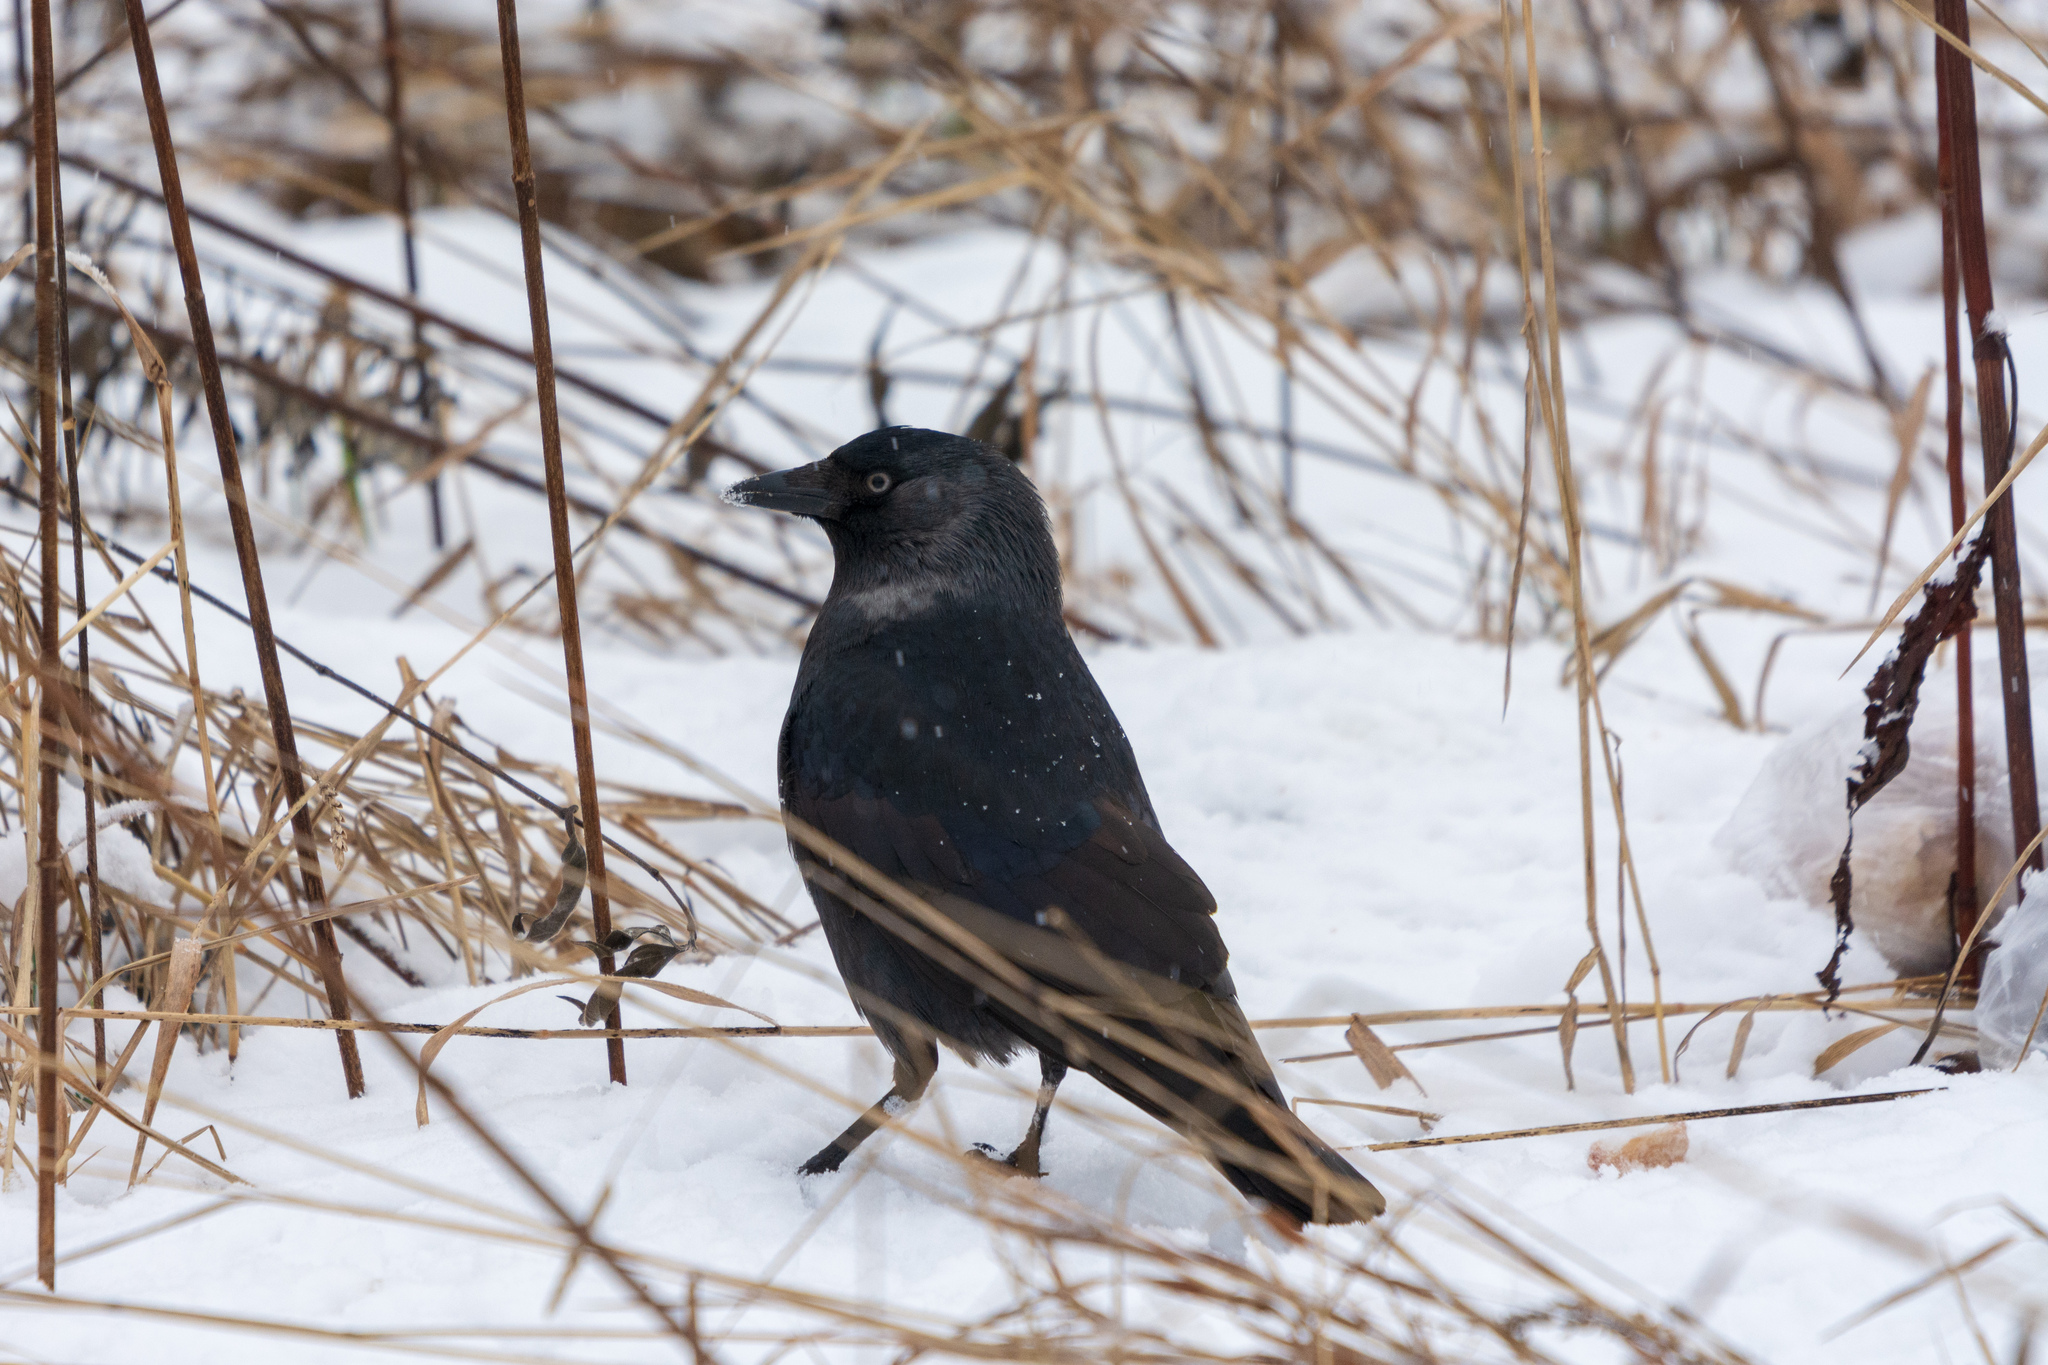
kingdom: Animalia
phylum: Chordata
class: Aves
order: Passeriformes
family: Corvidae
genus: Coloeus
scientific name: Coloeus monedula
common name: Western jackdaw
